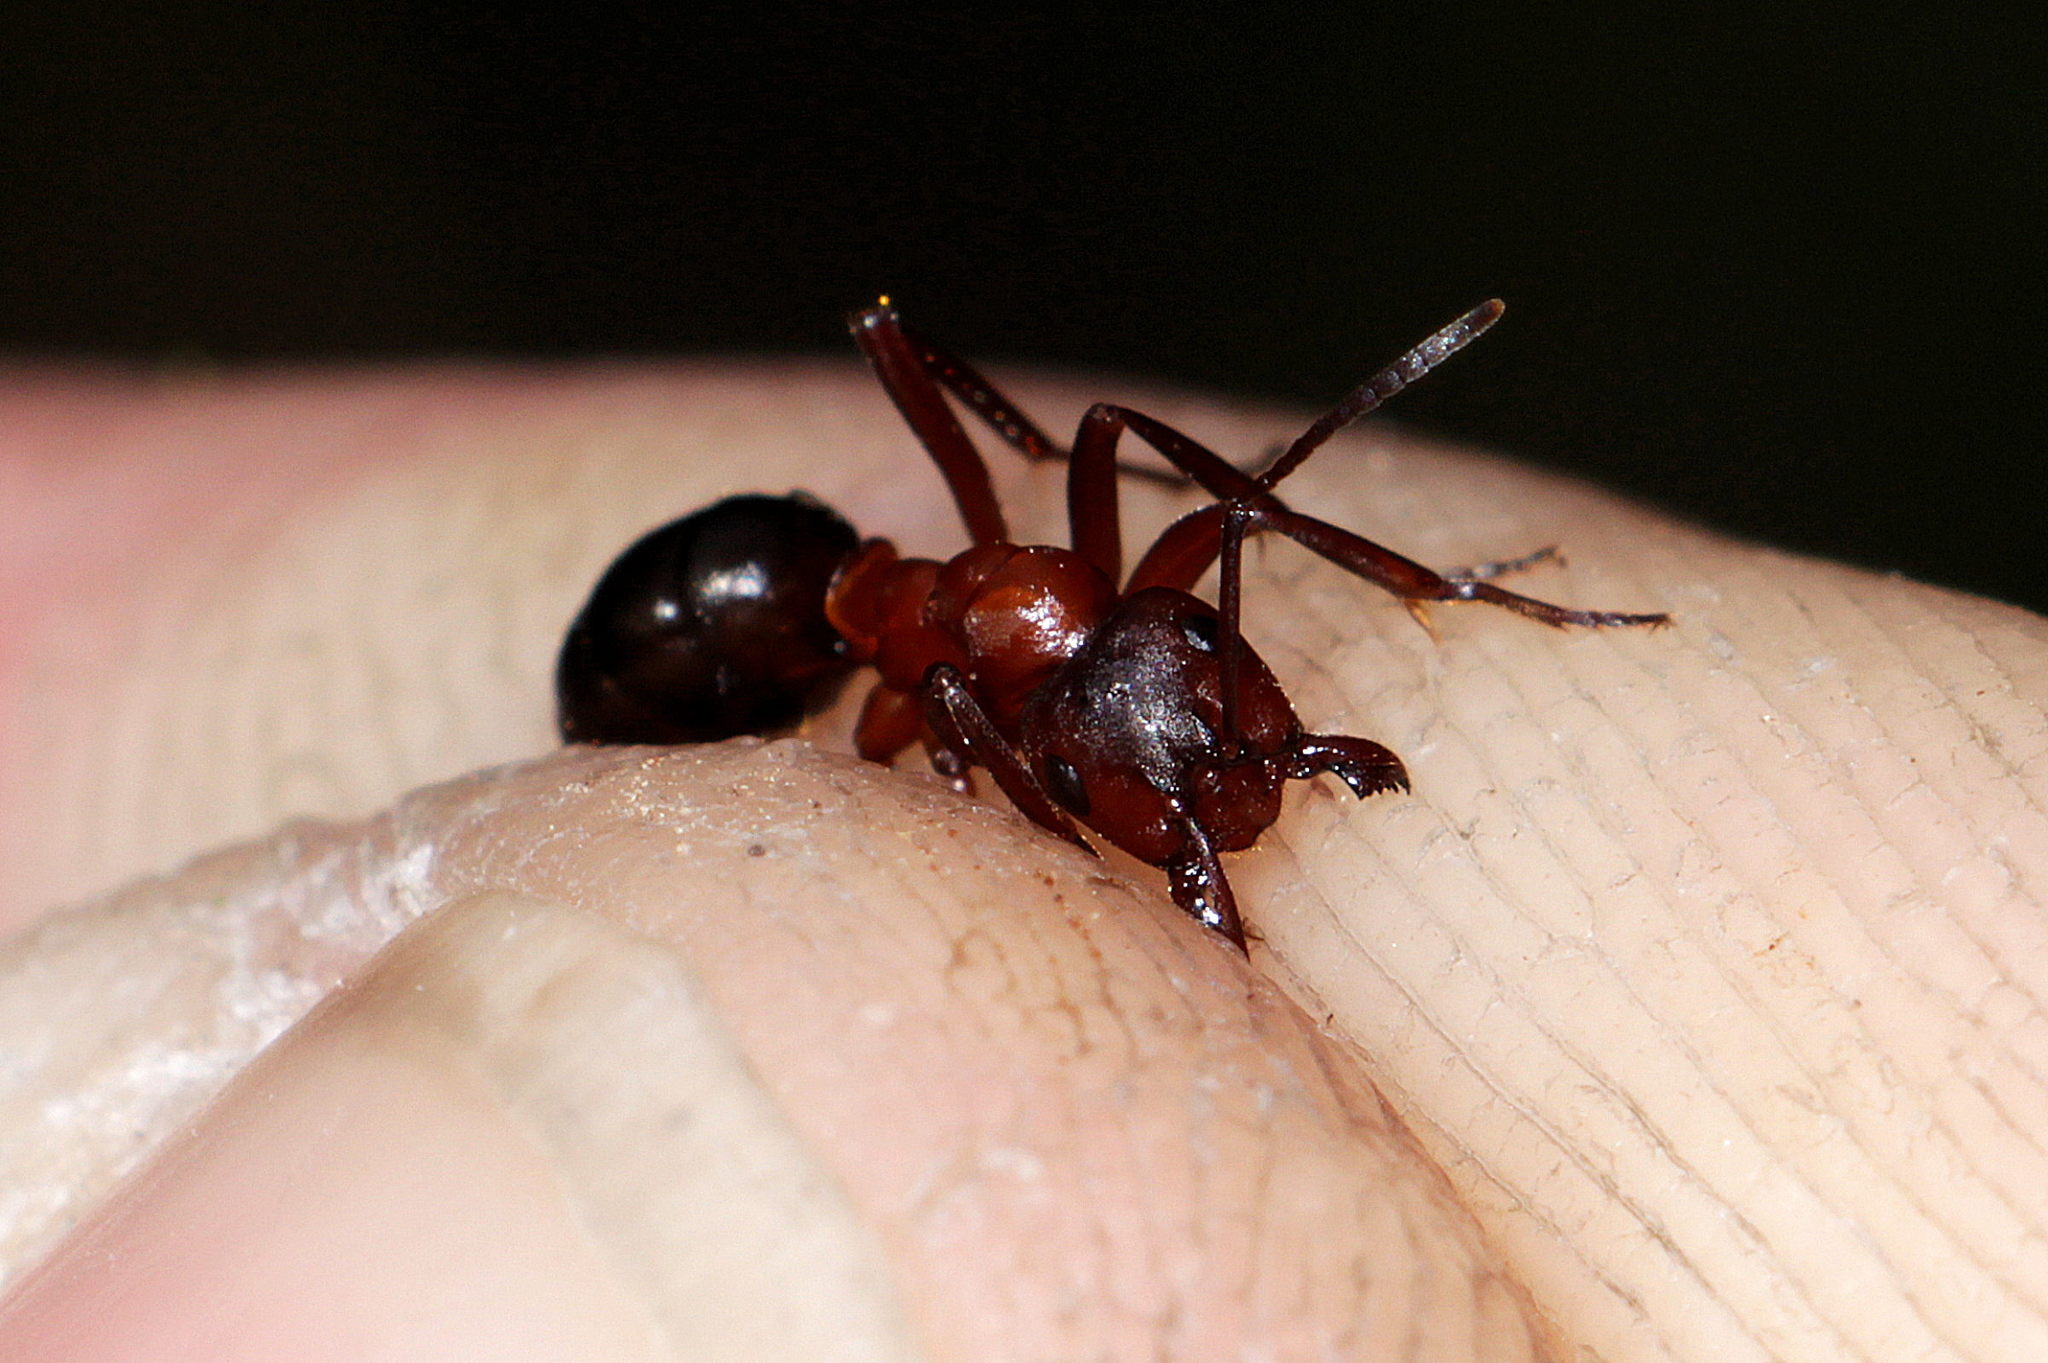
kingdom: Animalia
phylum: Arthropoda
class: Insecta
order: Hymenoptera
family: Formicidae
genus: Formica
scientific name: Formica sanguinea
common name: Blood-red ant
